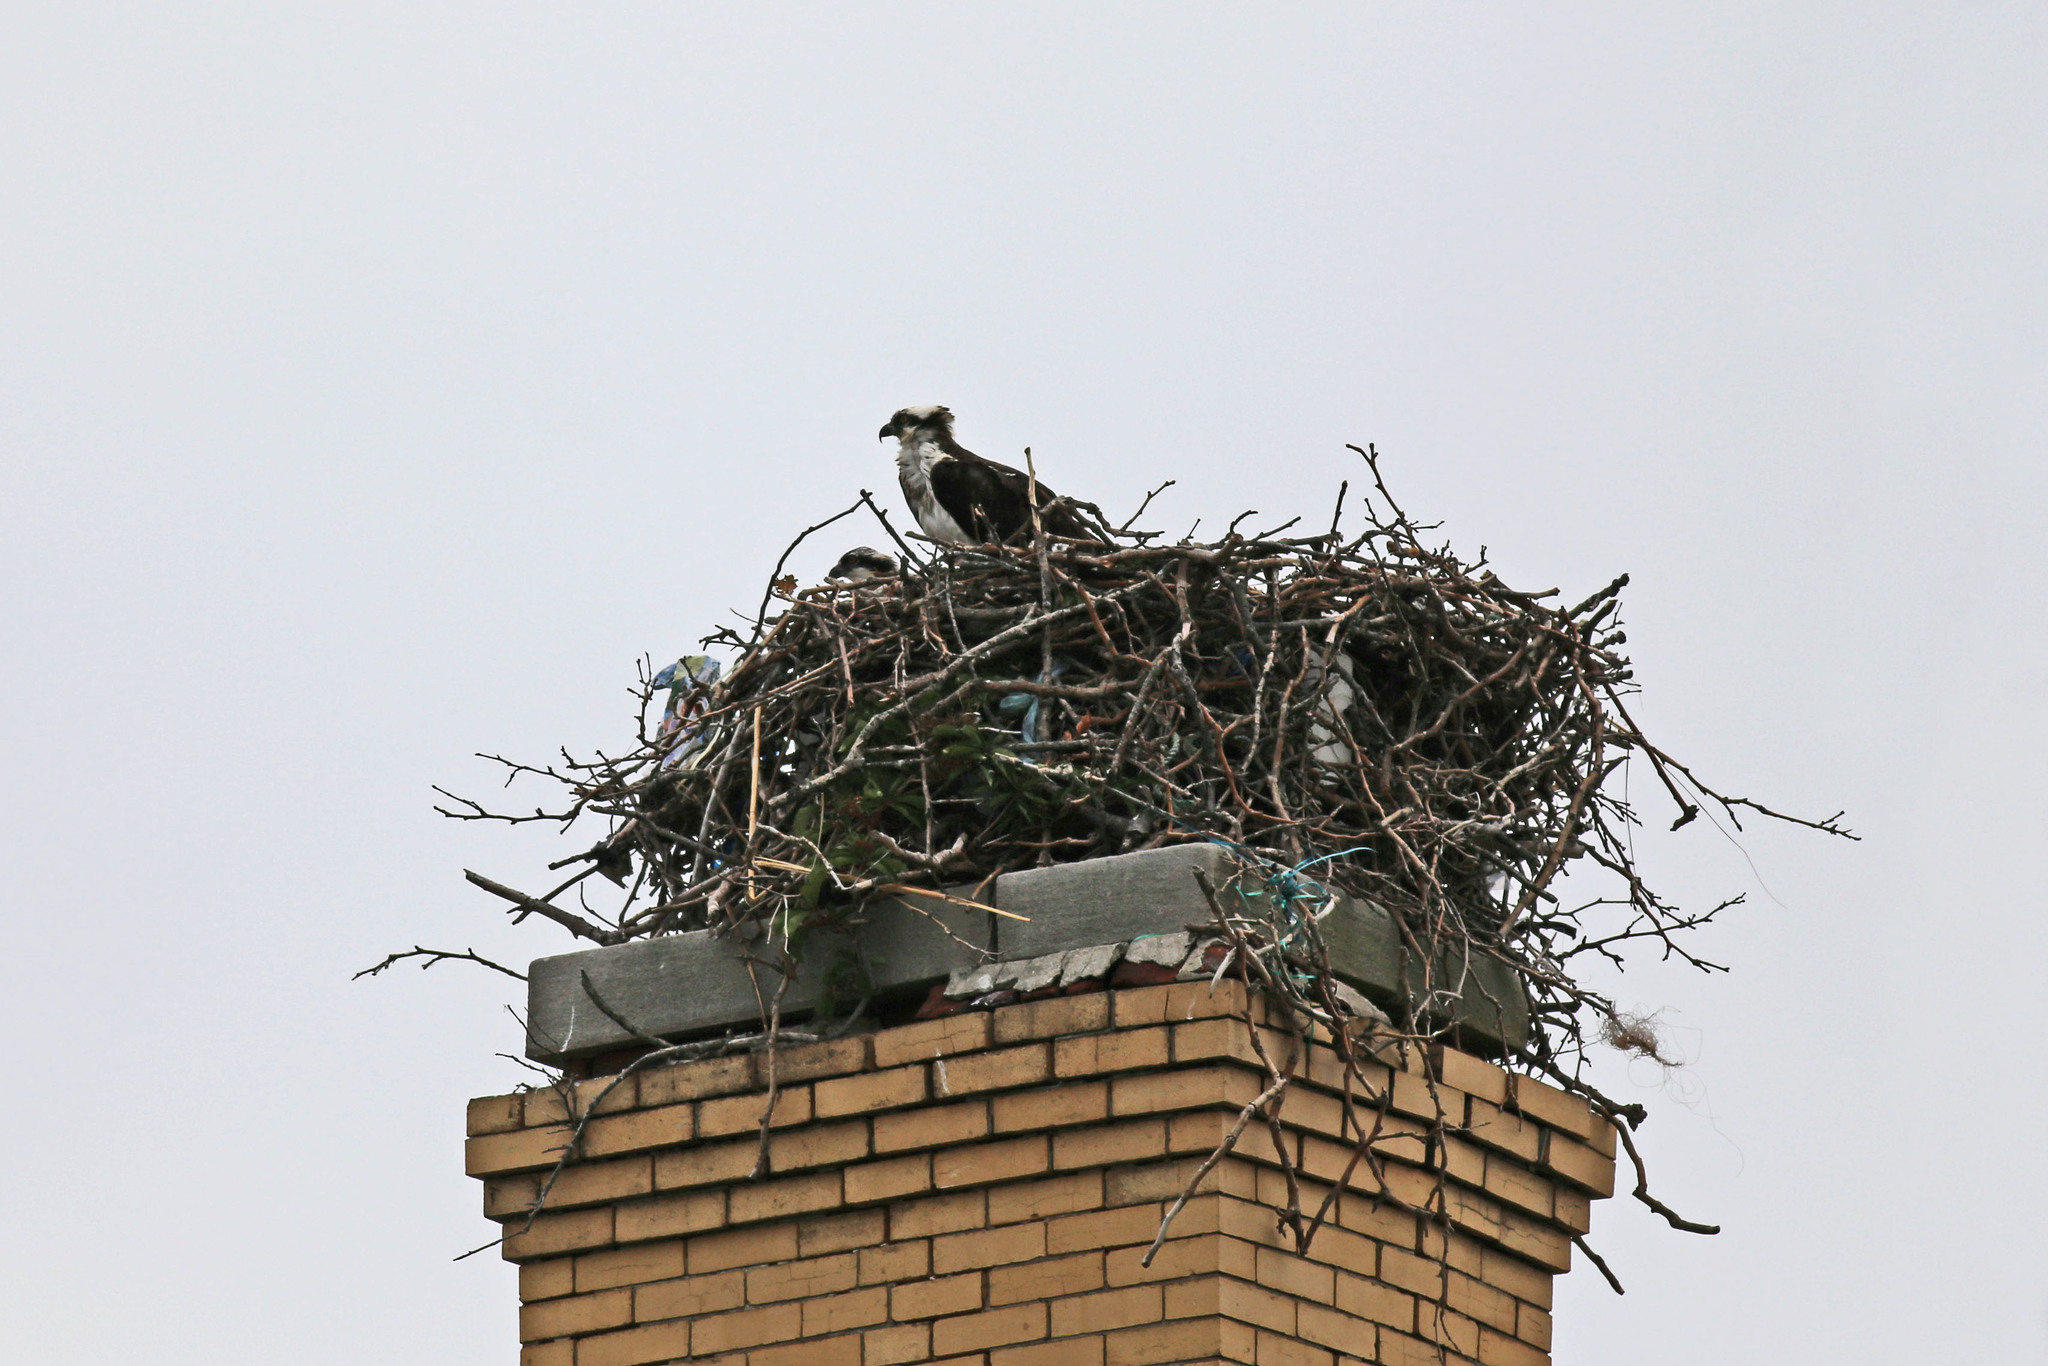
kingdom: Animalia
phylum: Chordata
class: Aves
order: Accipitriformes
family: Pandionidae
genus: Pandion
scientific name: Pandion haliaetus
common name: Osprey
